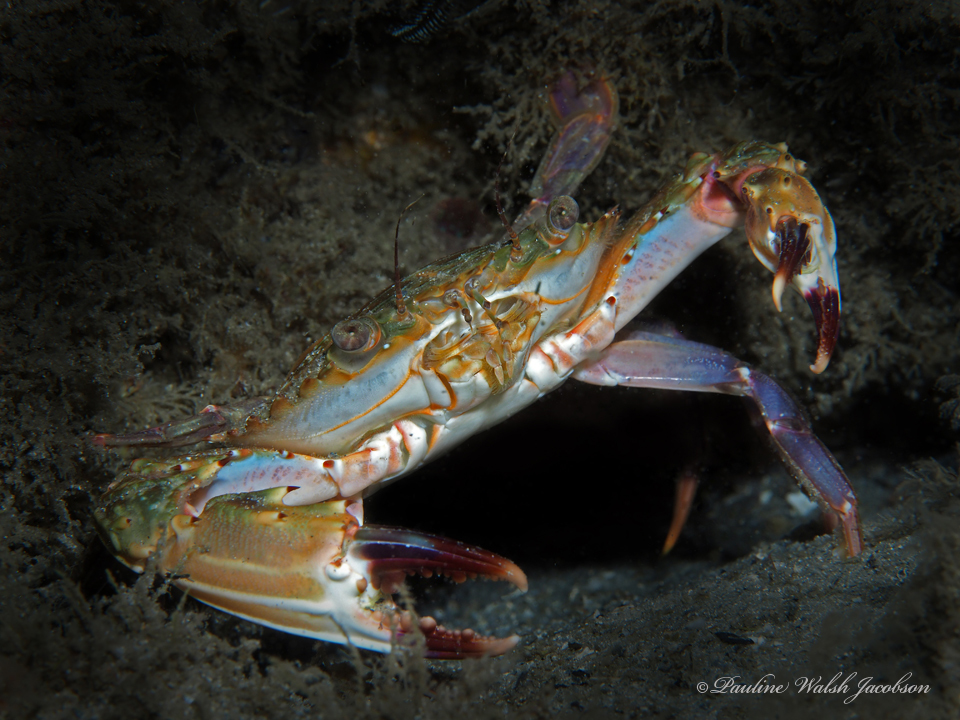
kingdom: Animalia
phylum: Arthropoda
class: Malacostraca
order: Decapoda
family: Portunidae
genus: Charybdis
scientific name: Charybdis hellerii
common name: Spiny hands
